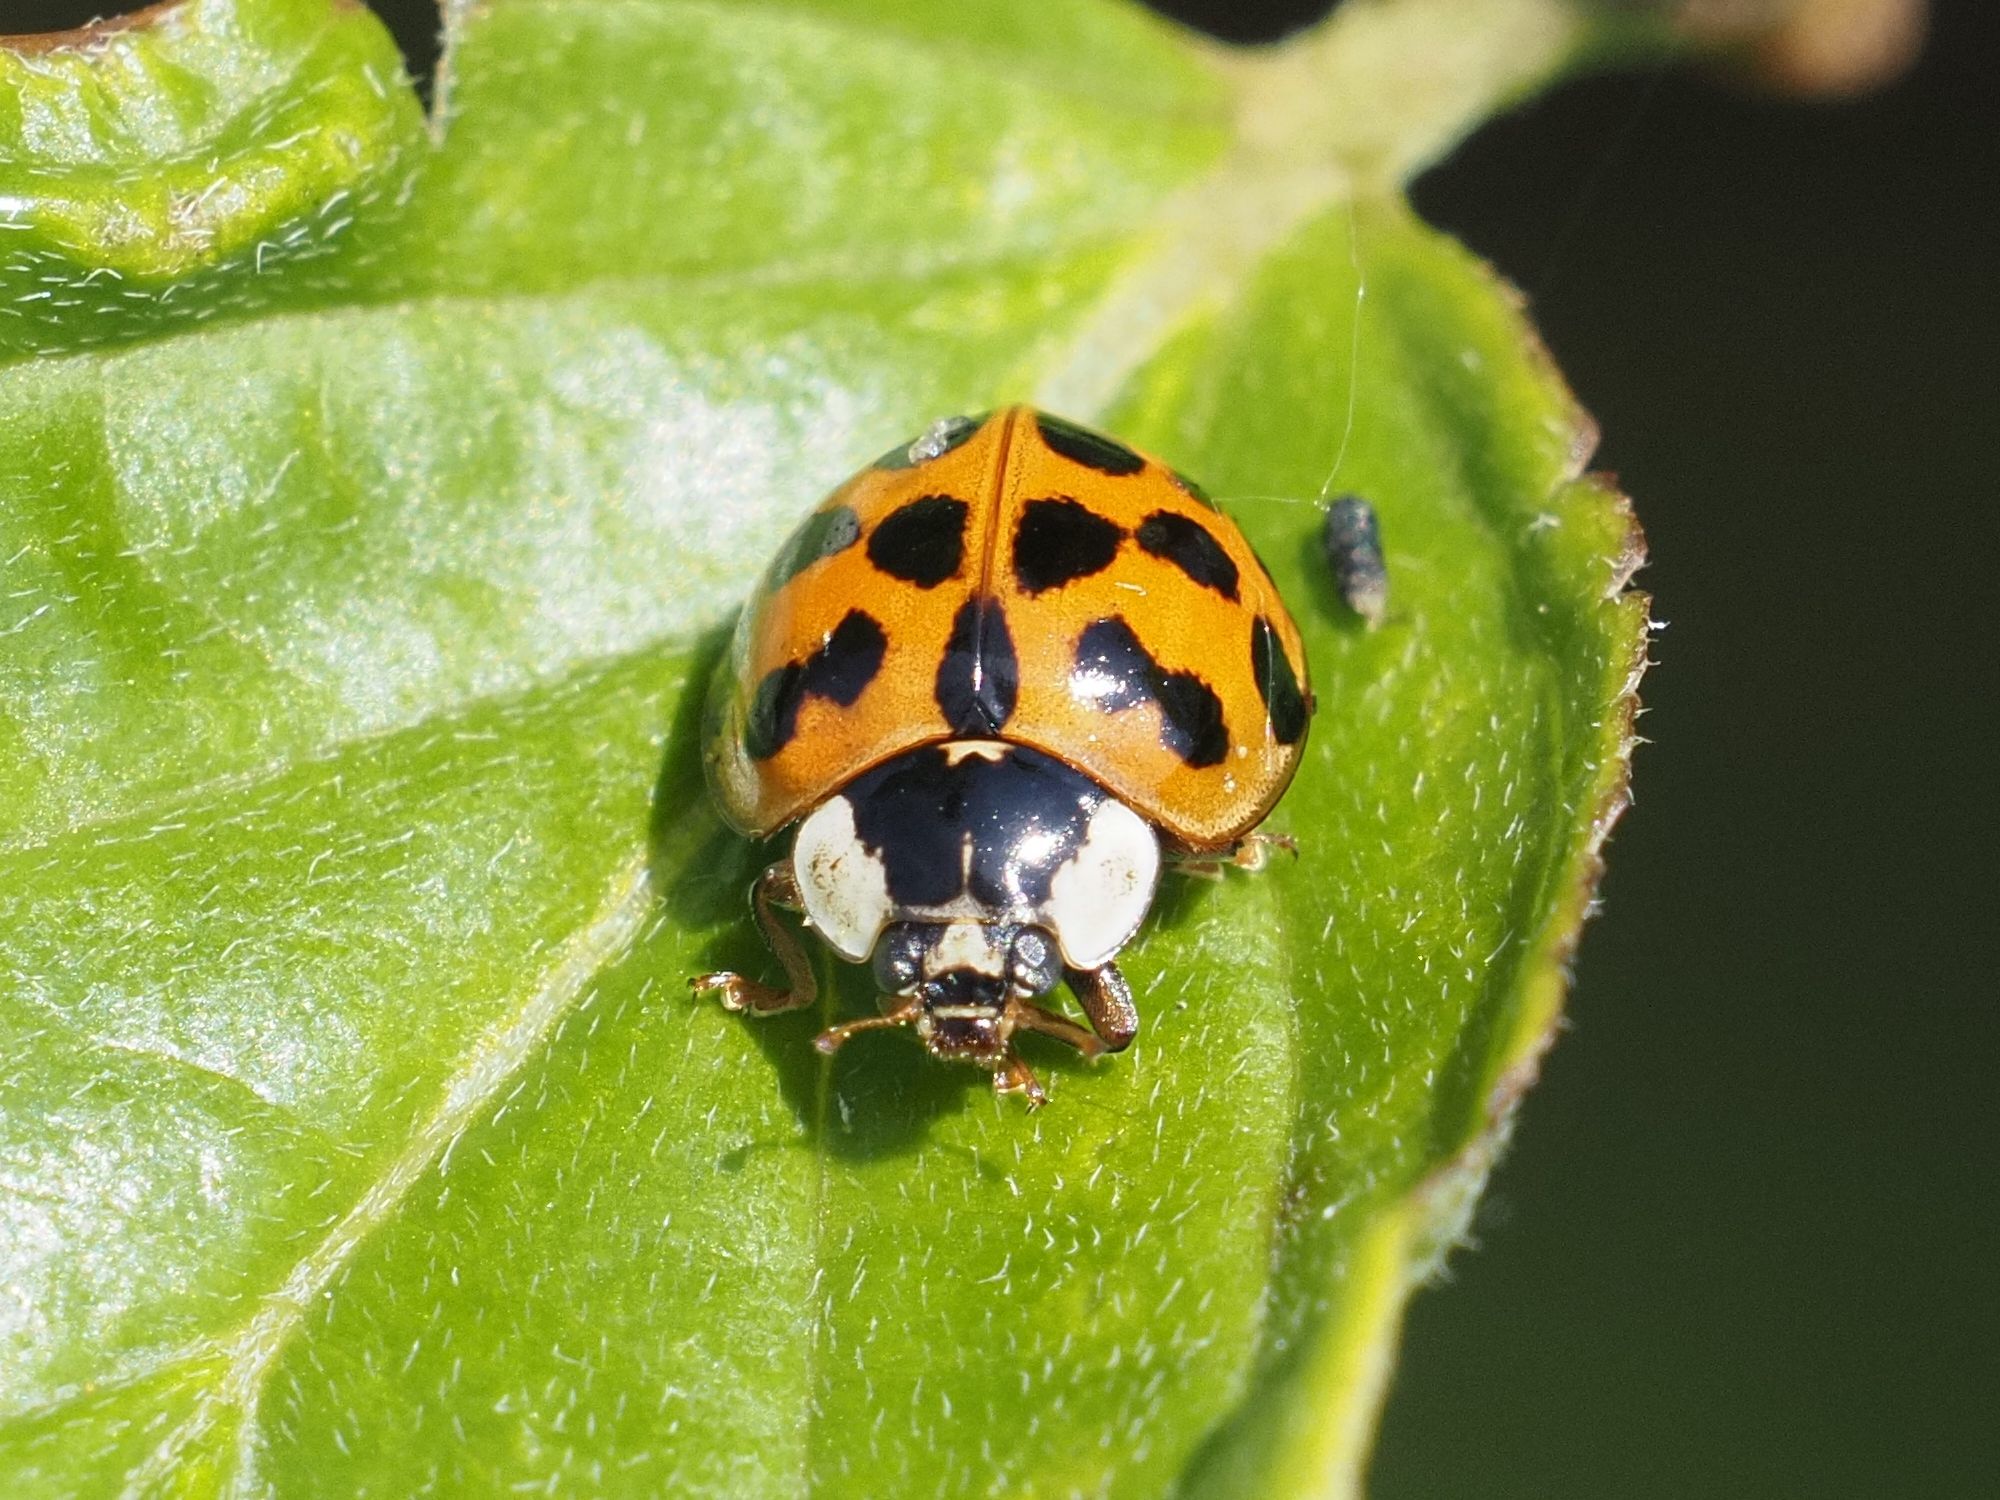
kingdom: Animalia
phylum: Arthropoda
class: Insecta
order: Coleoptera
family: Coccinellidae
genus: Harmonia
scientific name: Harmonia axyridis
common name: Harlequin ladybird
